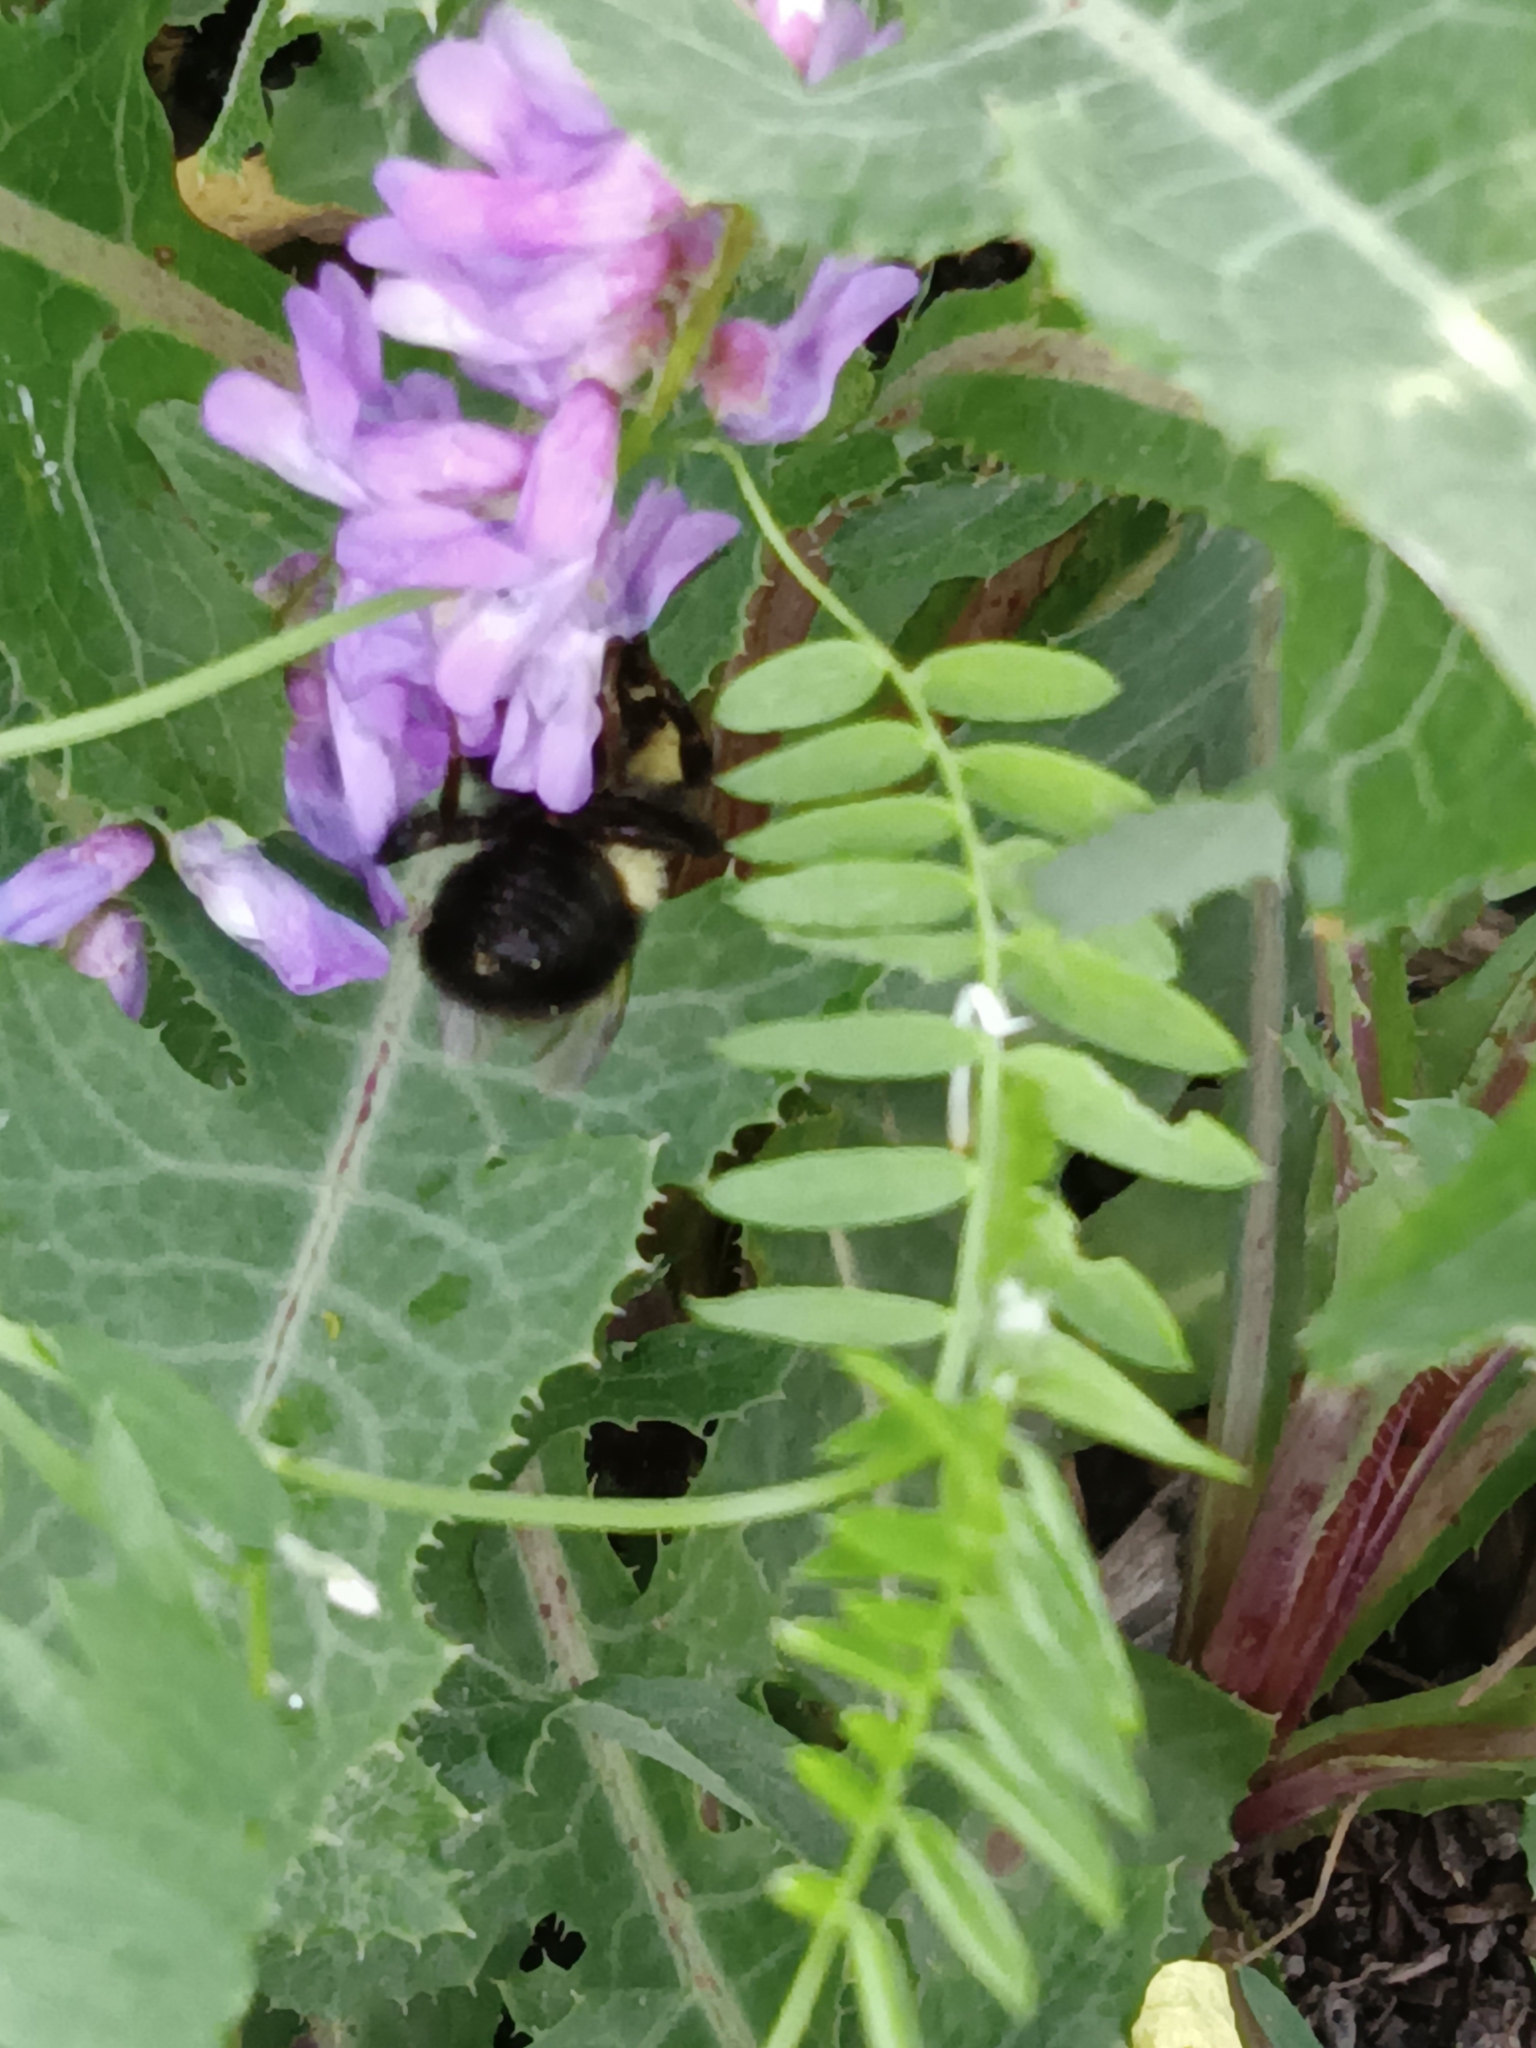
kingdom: Animalia
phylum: Arthropoda
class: Insecta
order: Hymenoptera
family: Apidae
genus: Bombus
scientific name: Bombus
